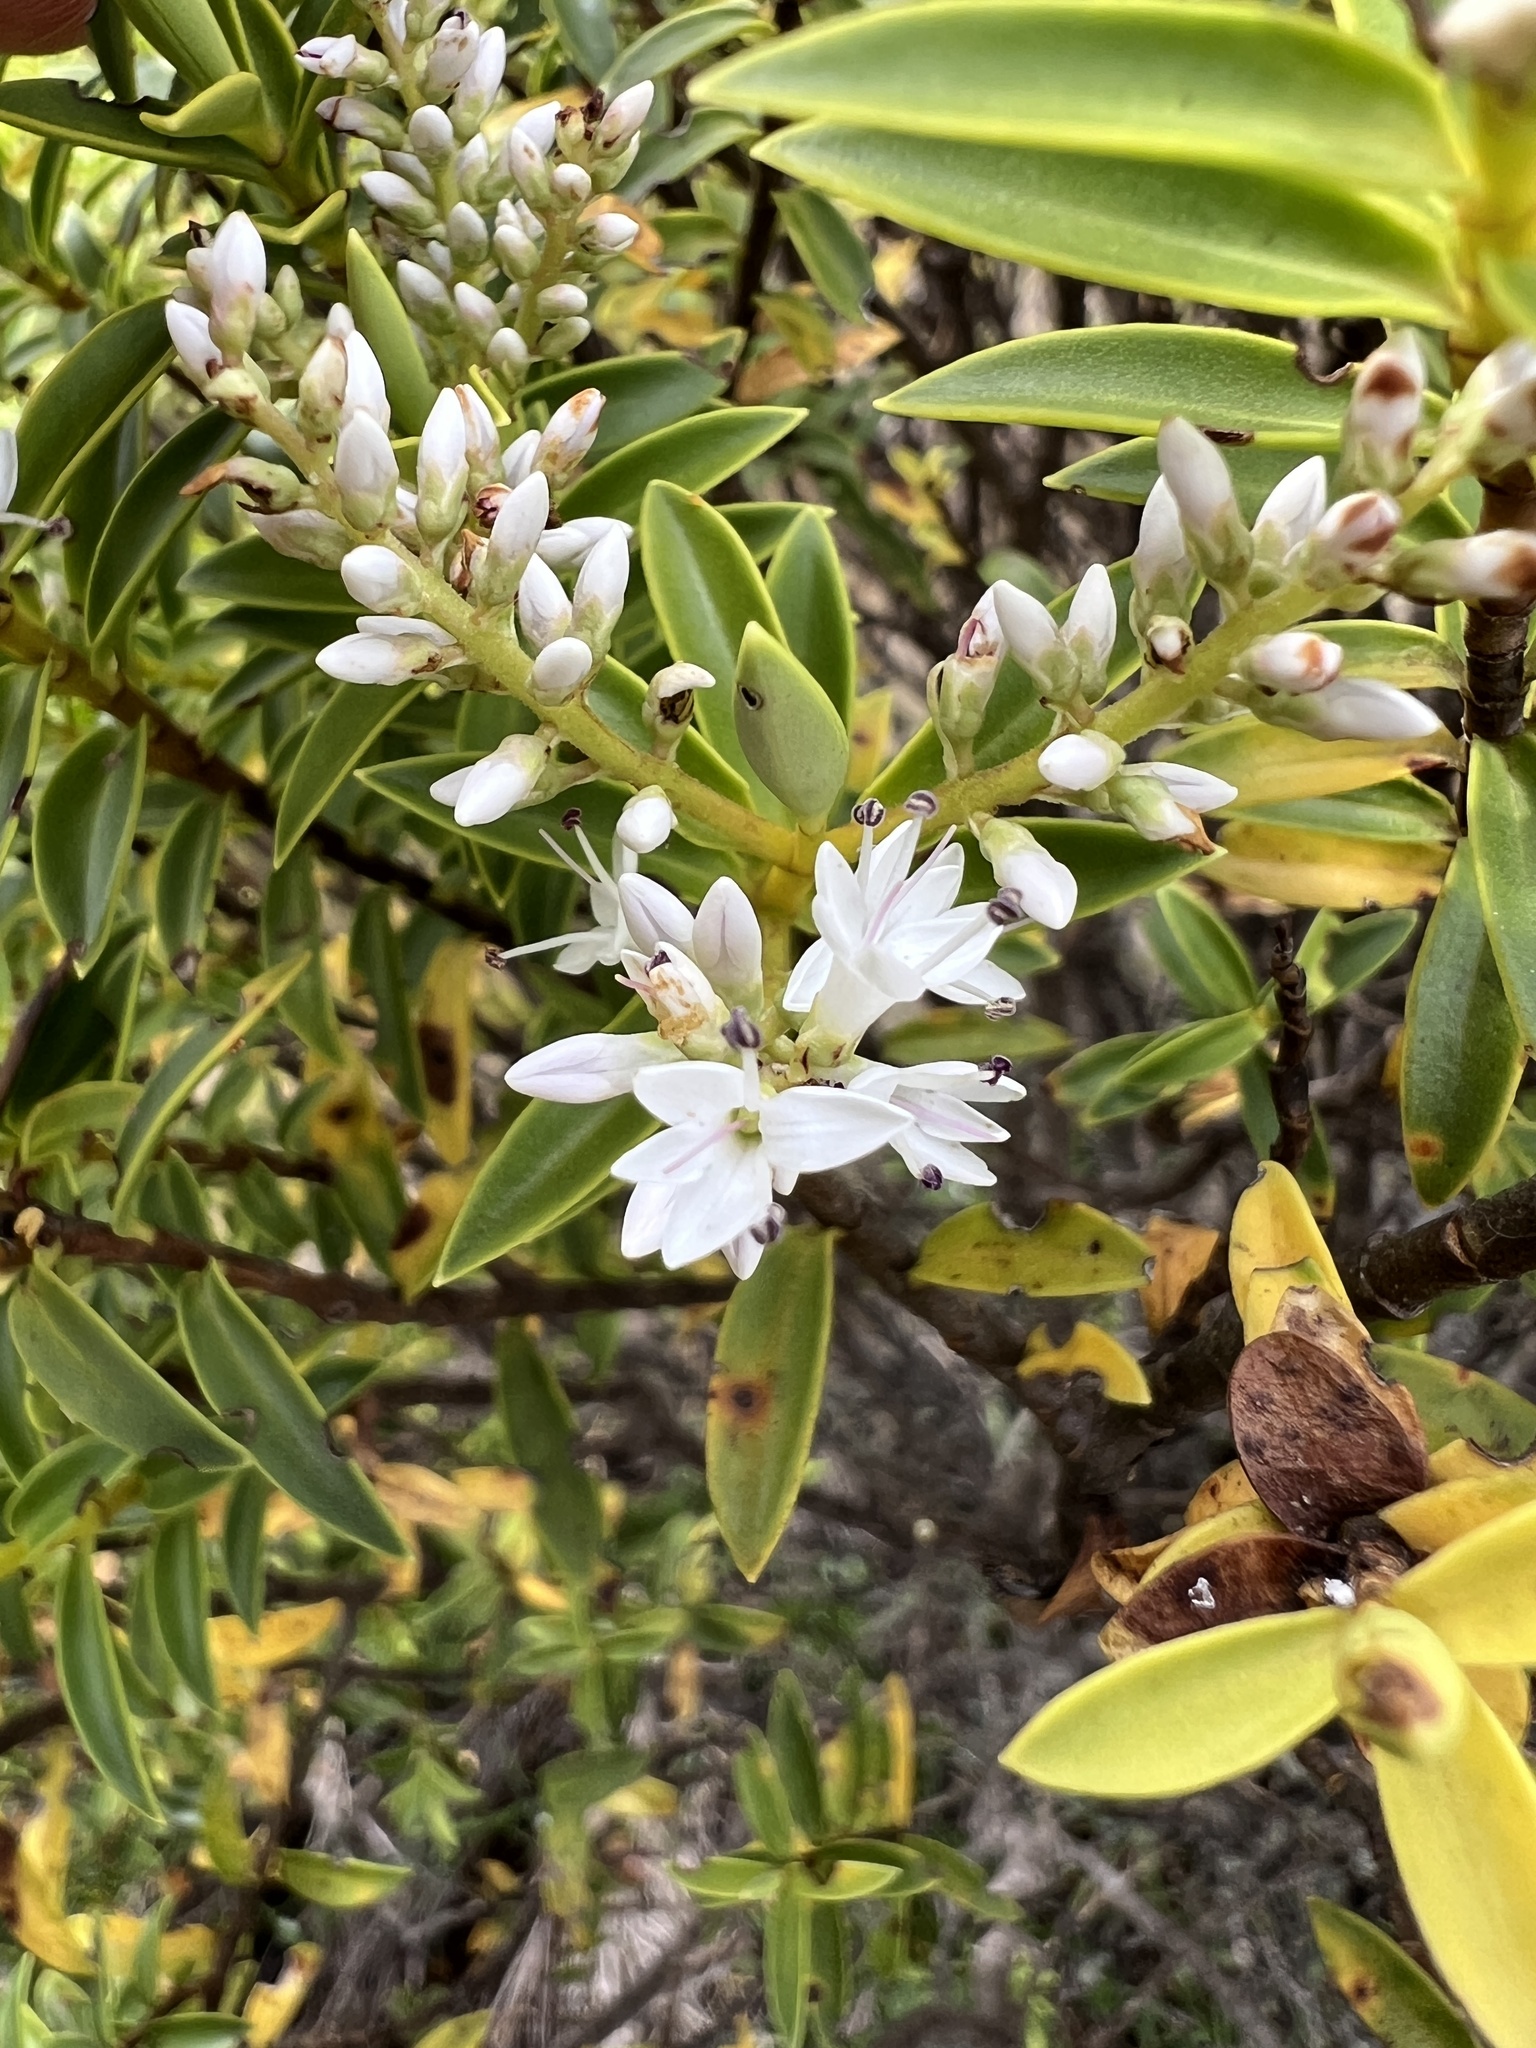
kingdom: Plantae
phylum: Tracheophyta
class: Magnoliopsida
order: Lamiales
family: Plantaginaceae
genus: Veronica
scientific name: Veronica brachysiphon
